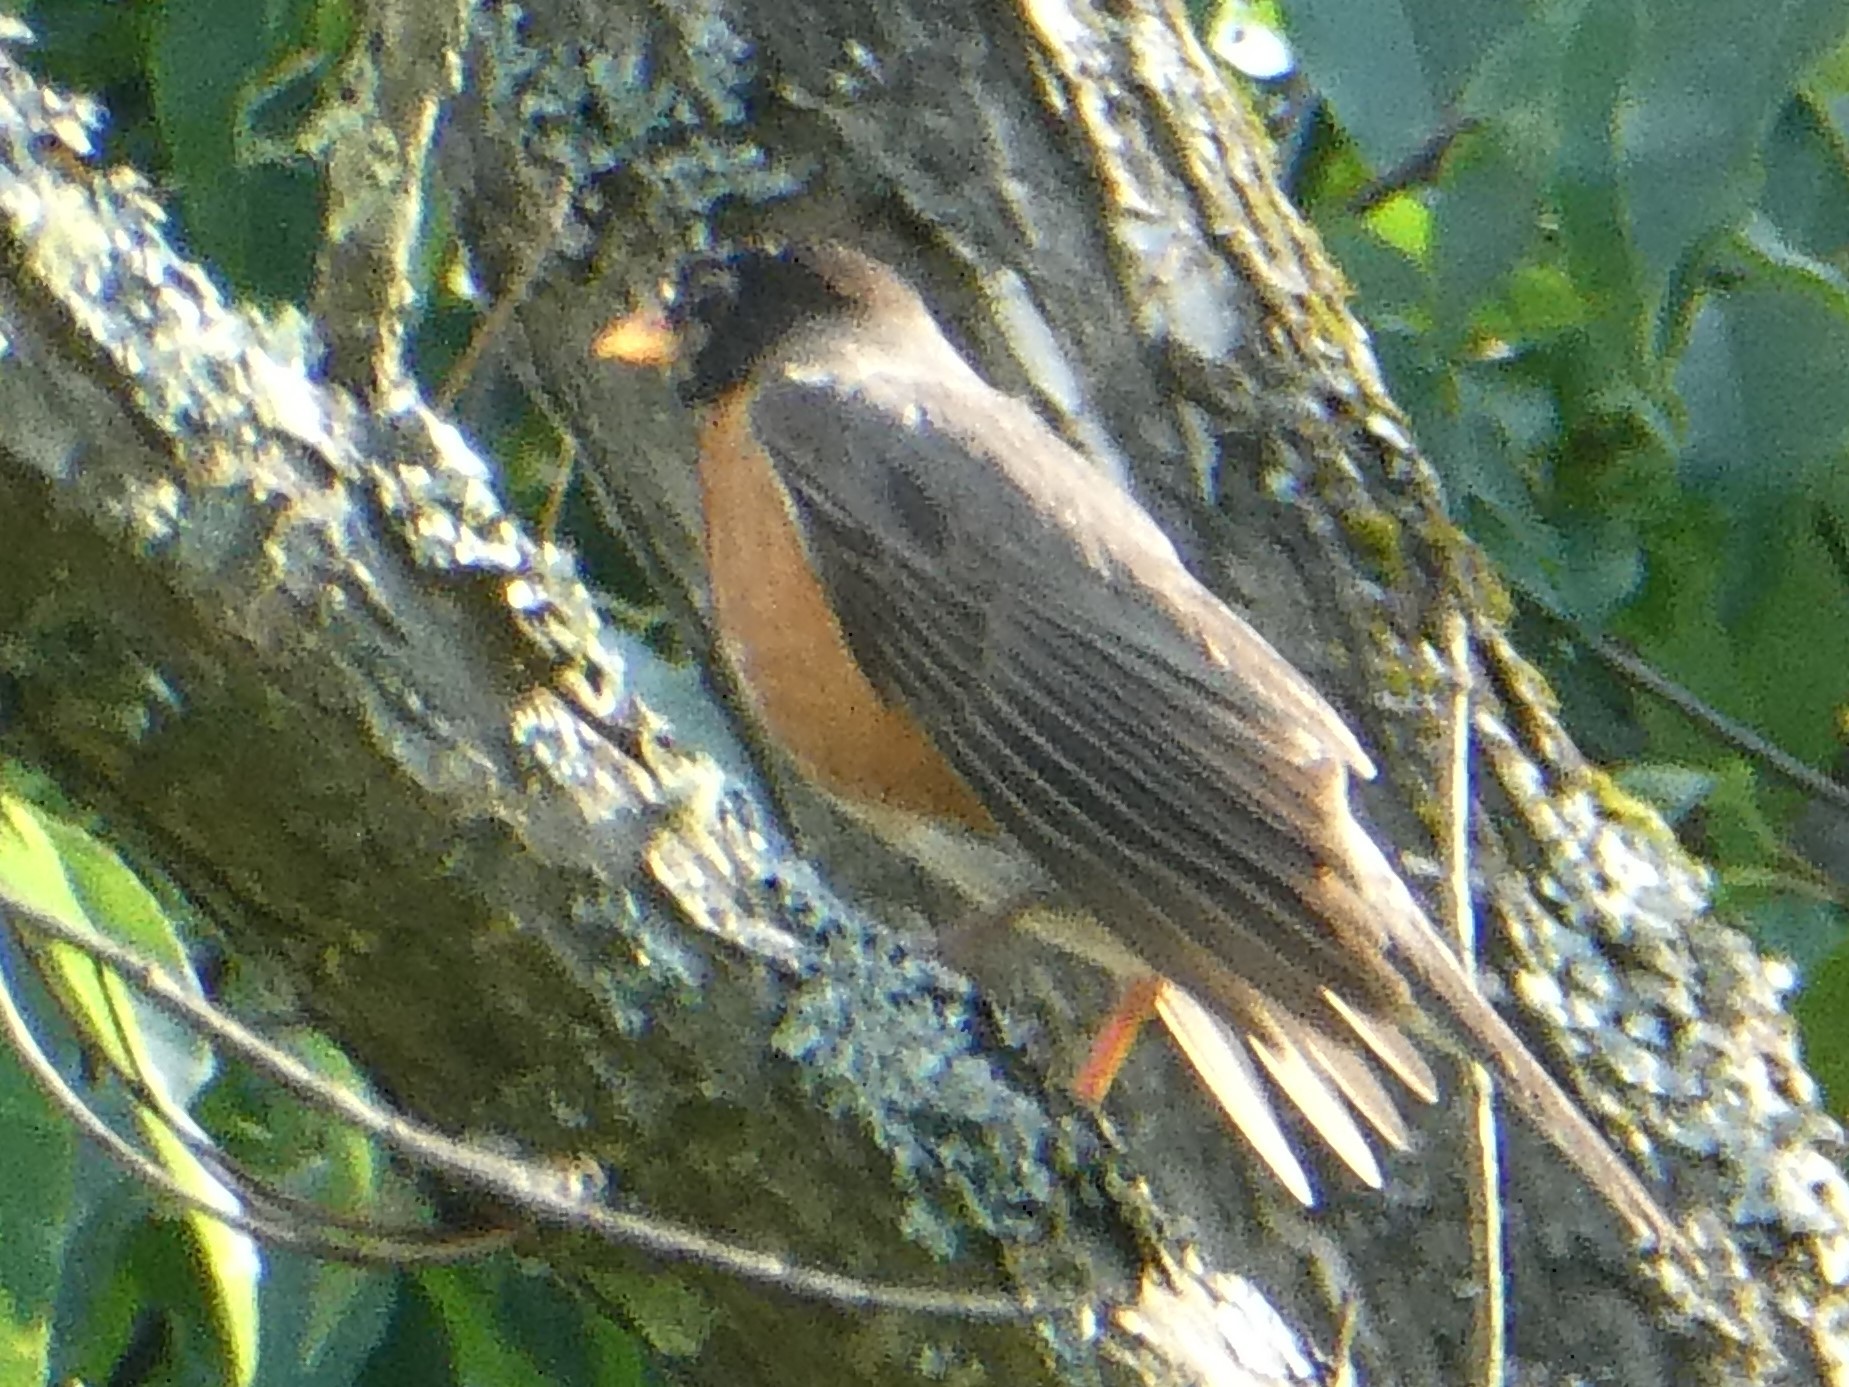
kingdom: Animalia
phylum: Chordata
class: Aves
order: Passeriformes
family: Turdidae
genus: Turdus
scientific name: Turdus migratorius
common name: American robin
